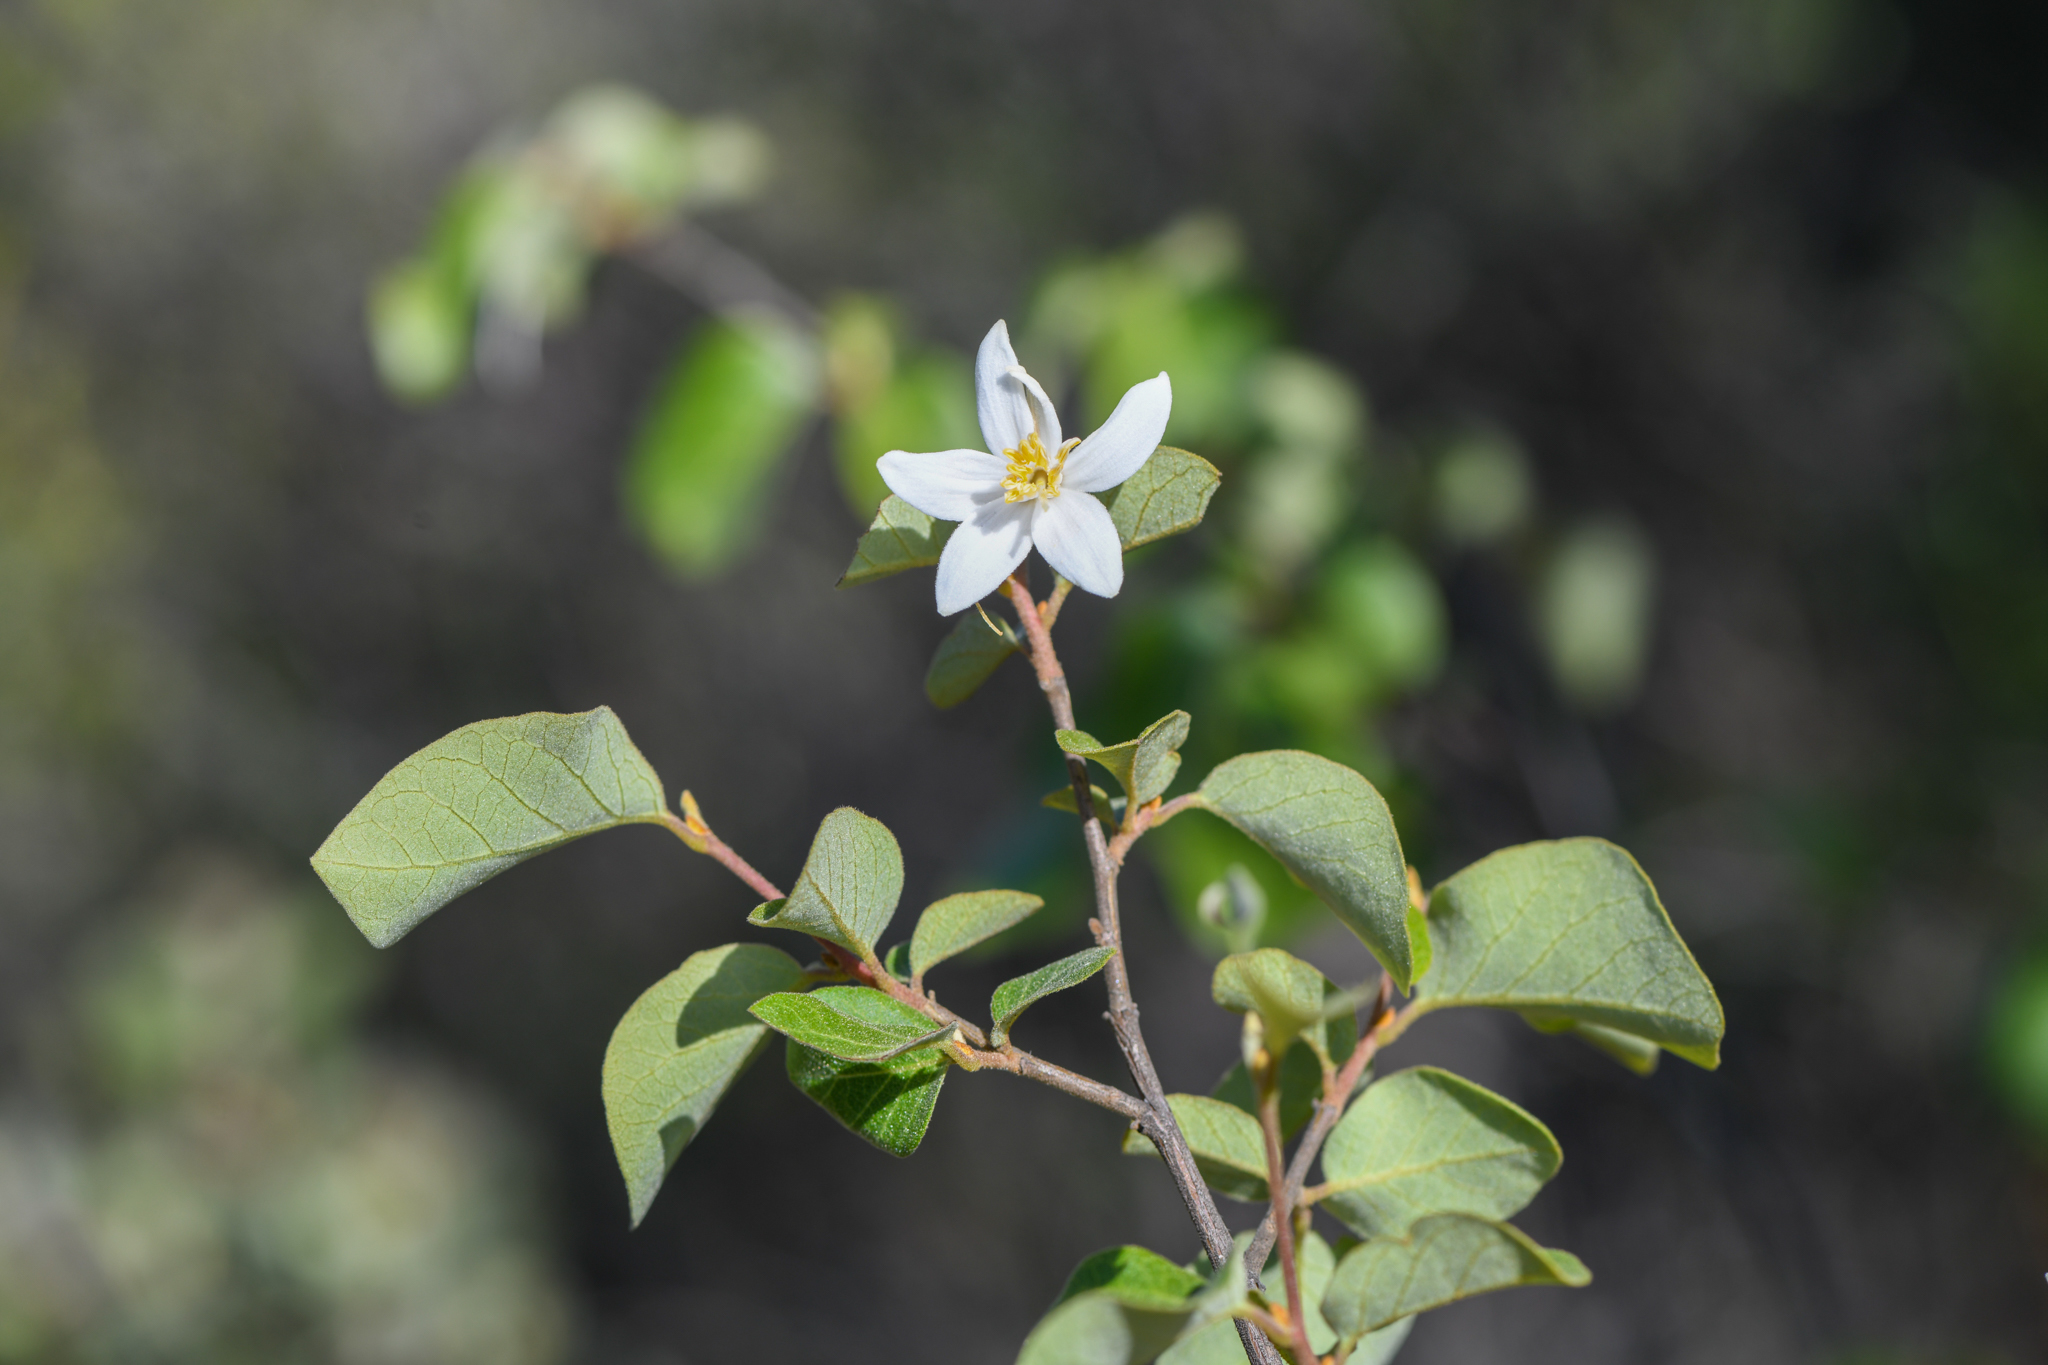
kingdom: Plantae
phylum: Tracheophyta
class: Magnoliopsida
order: Ericales
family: Styracaceae
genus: Styrax
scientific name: Styrax redivivus
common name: California styrax
